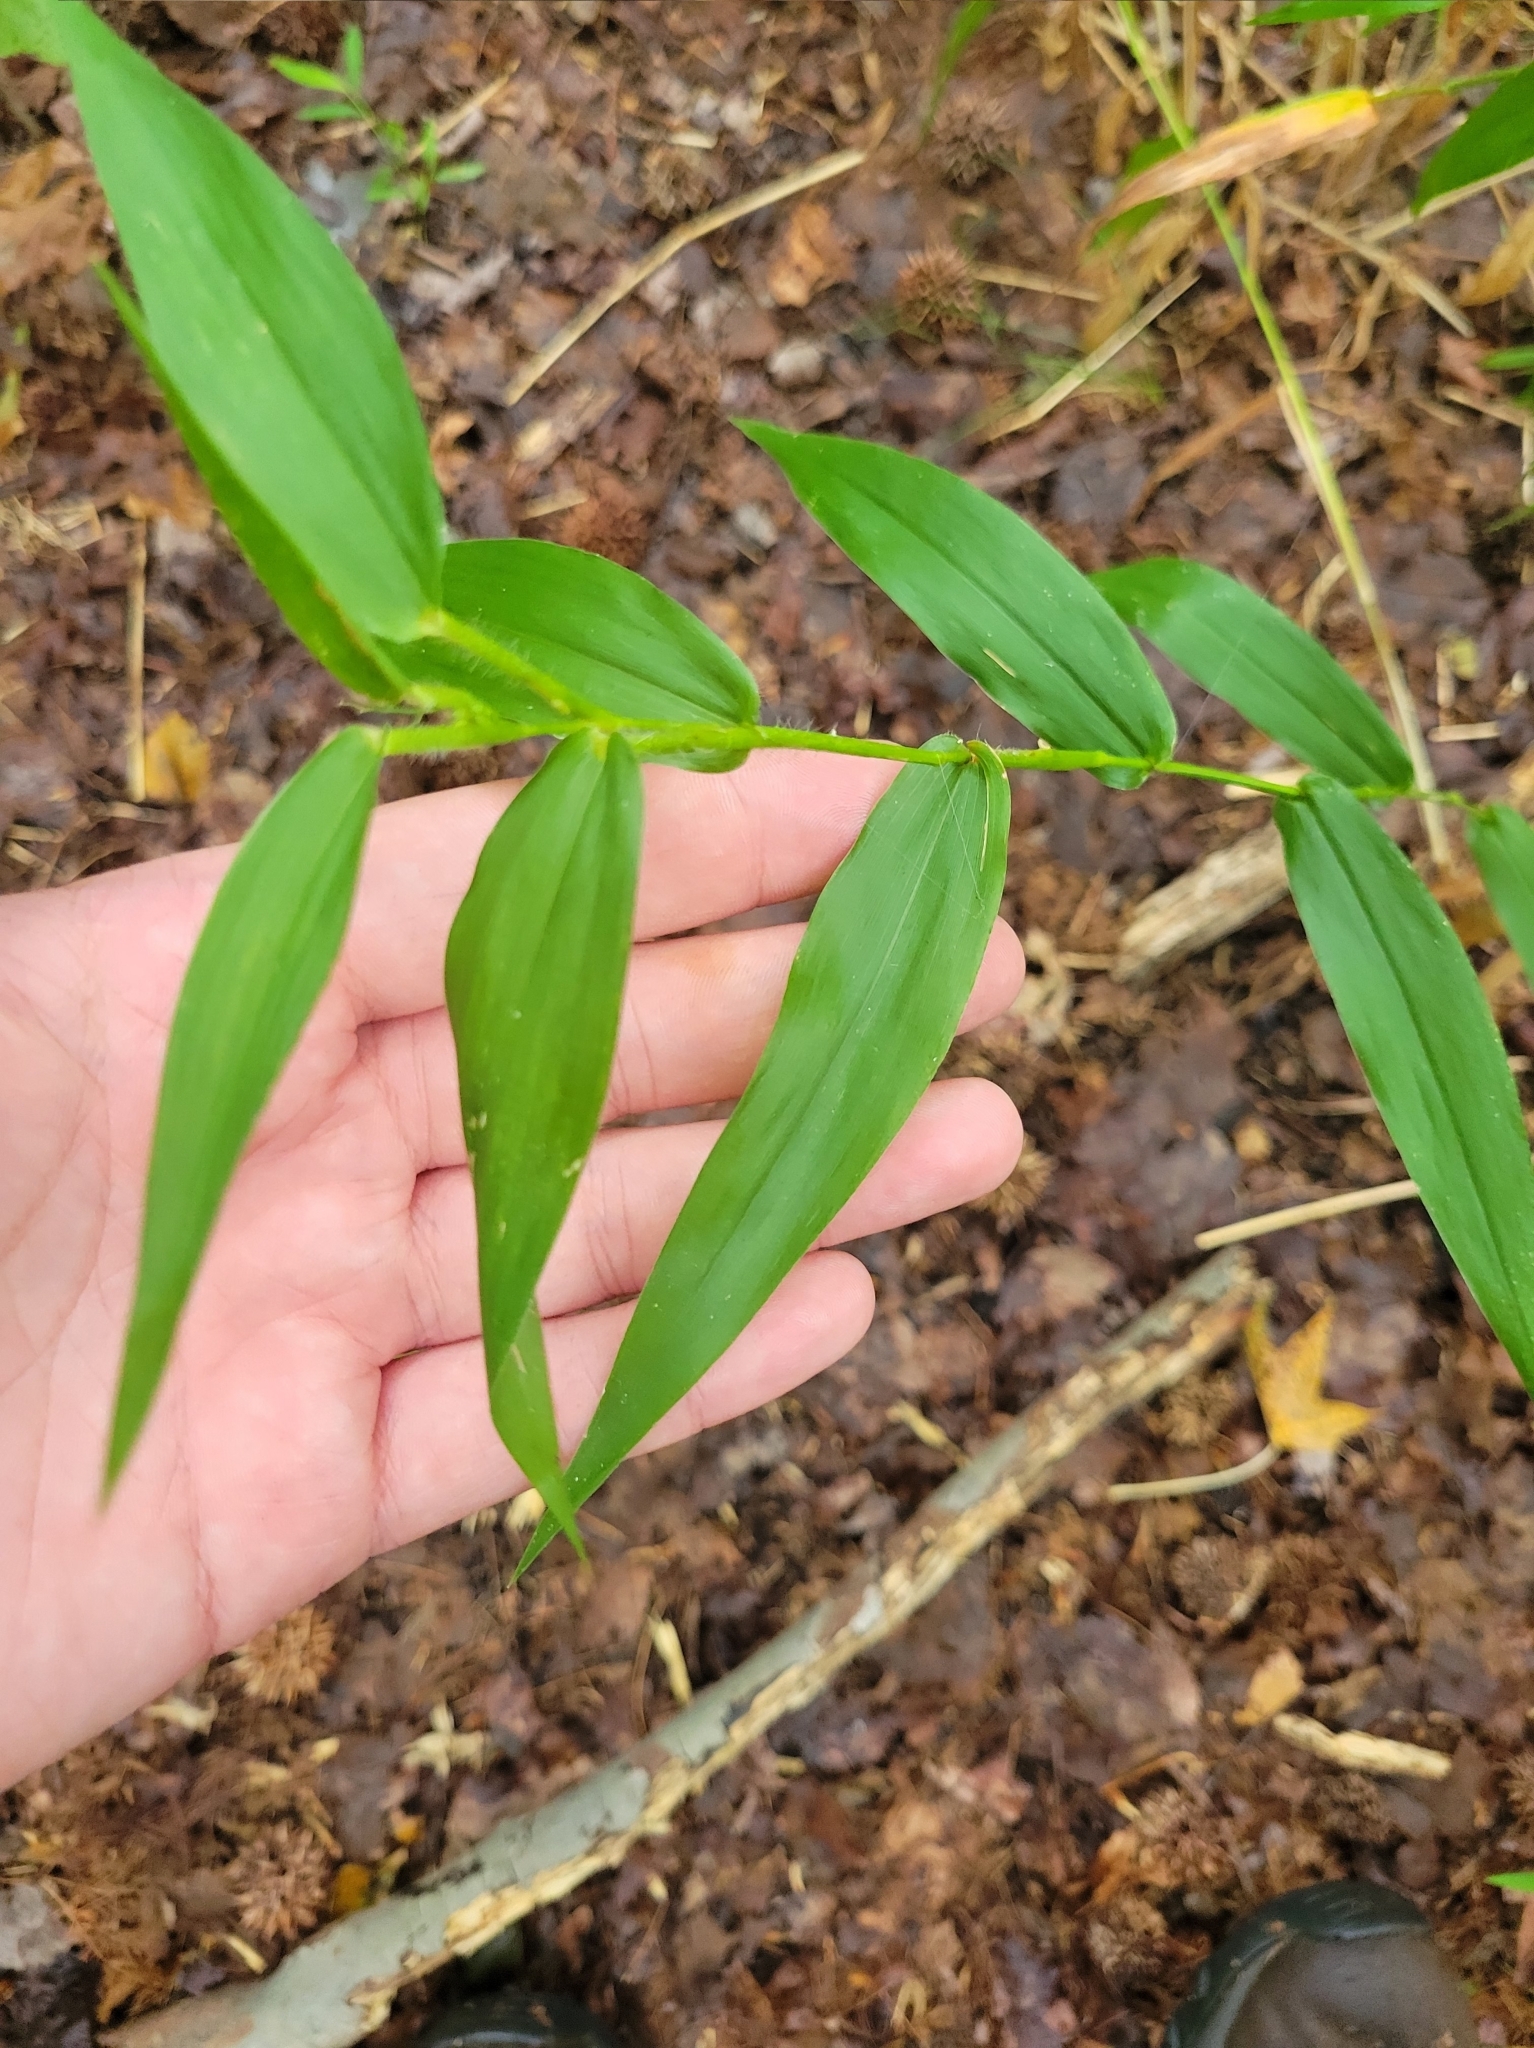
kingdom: Plantae
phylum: Tracheophyta
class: Liliopsida
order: Poales
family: Poaceae
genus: Dichanthelium
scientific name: Dichanthelium clandestinum
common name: Deer-tongue grass
